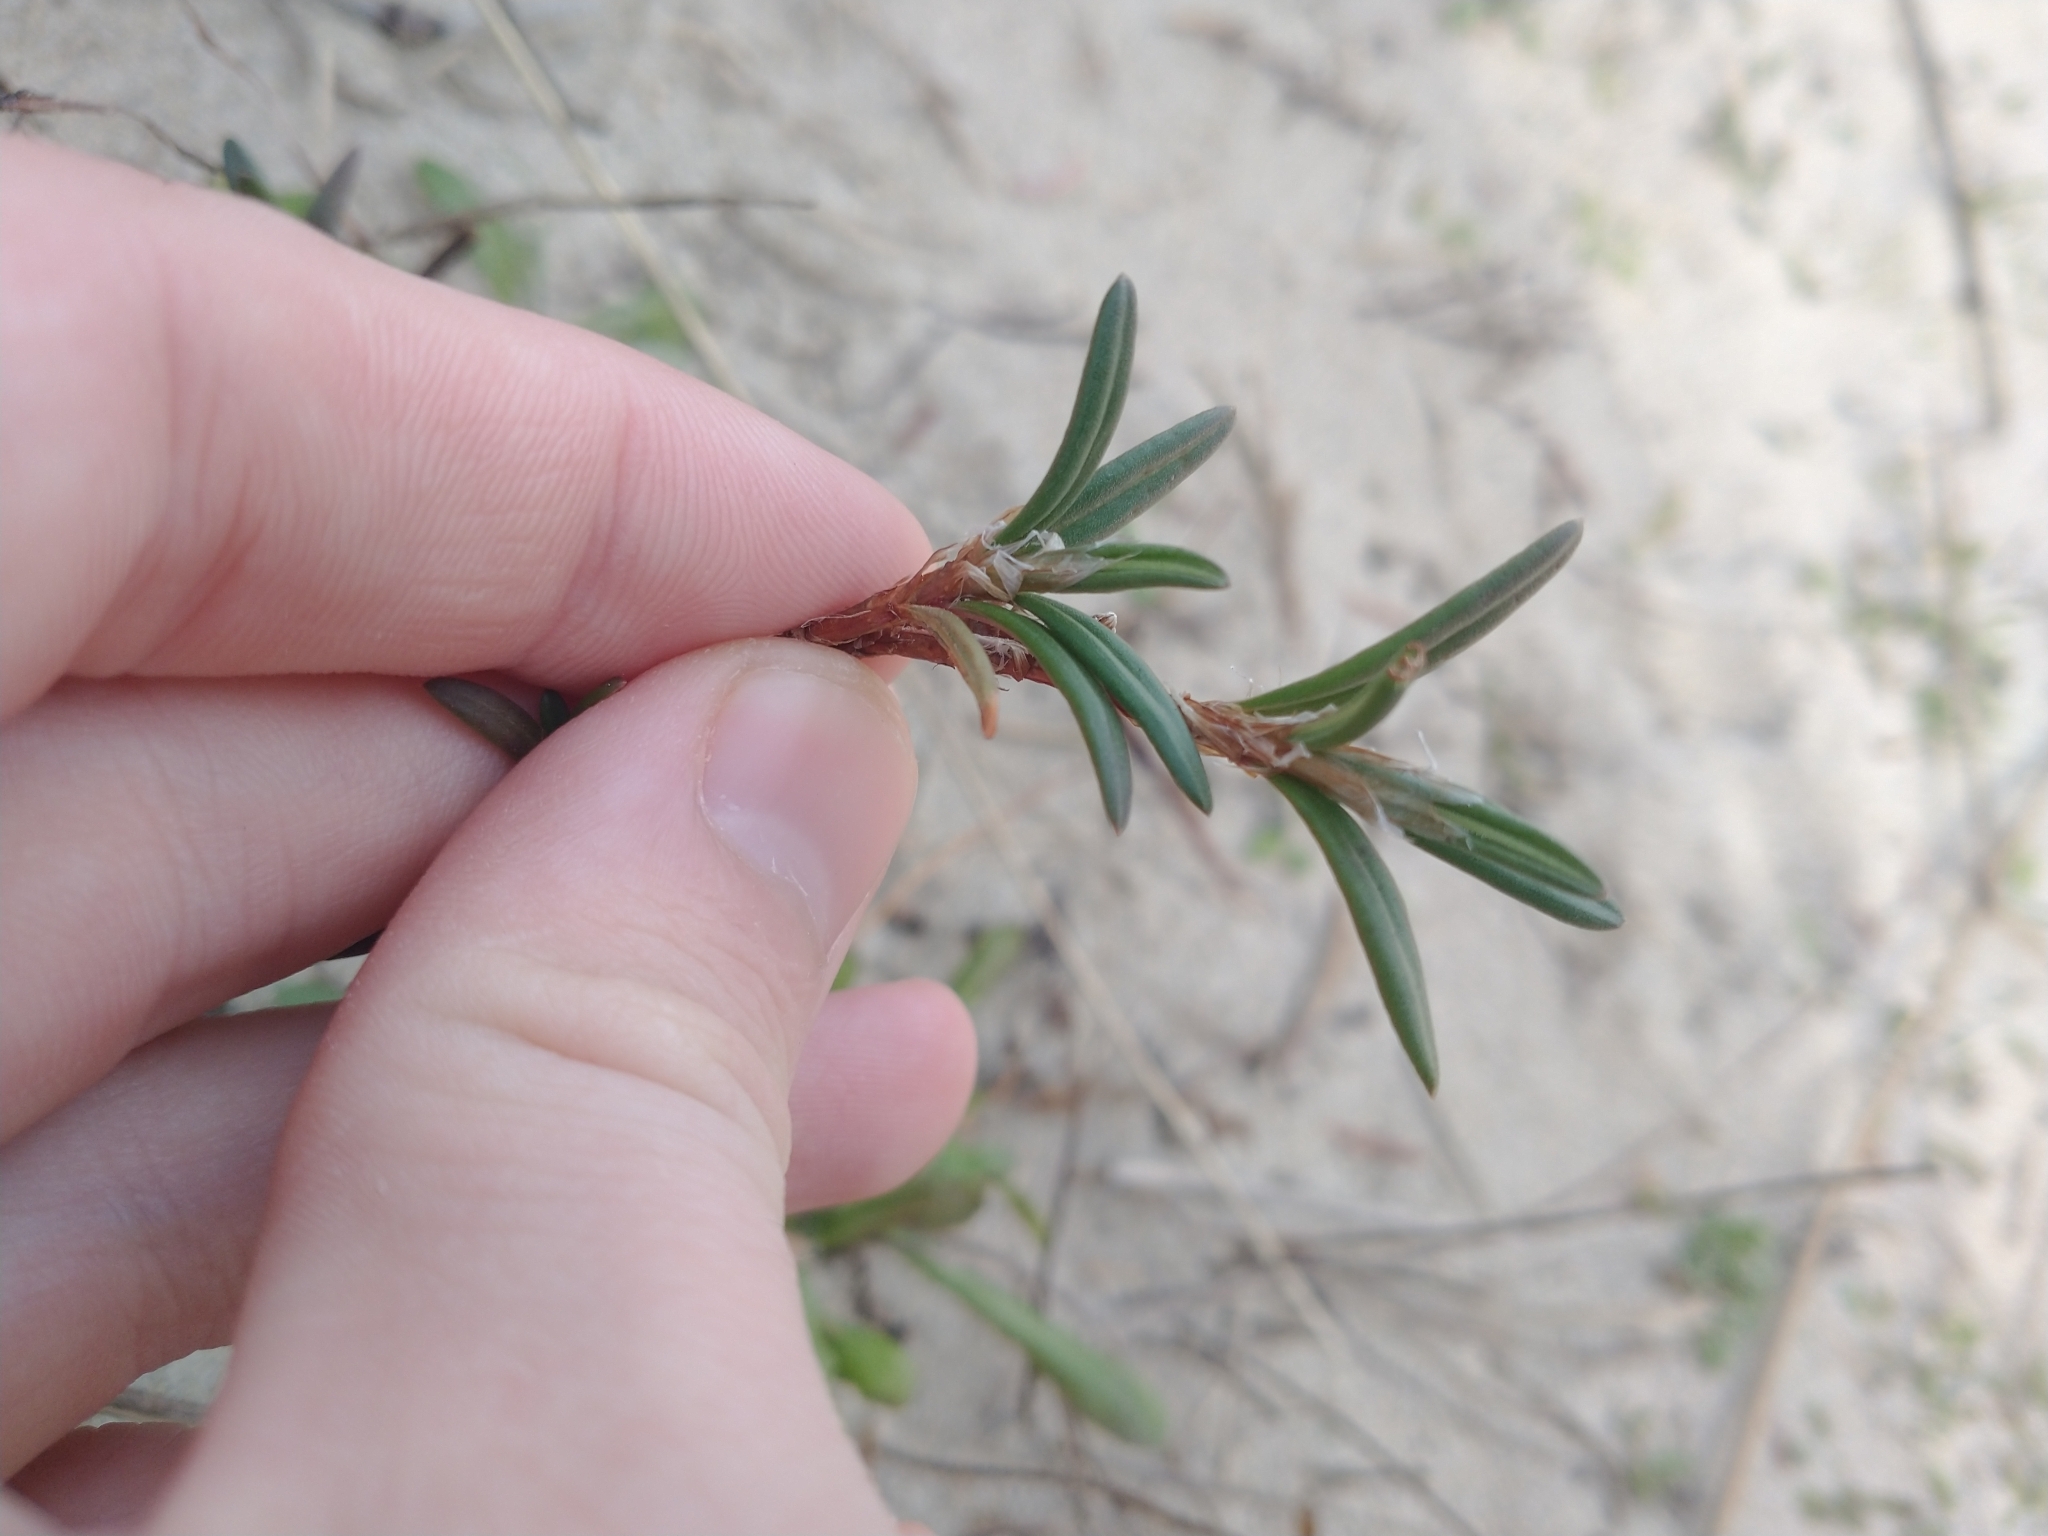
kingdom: Plantae
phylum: Tracheophyta
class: Magnoliopsida
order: Caryophyllales
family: Polygonaceae
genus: Polygonum
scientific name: Polygonum paronychia
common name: Dune knotweed
